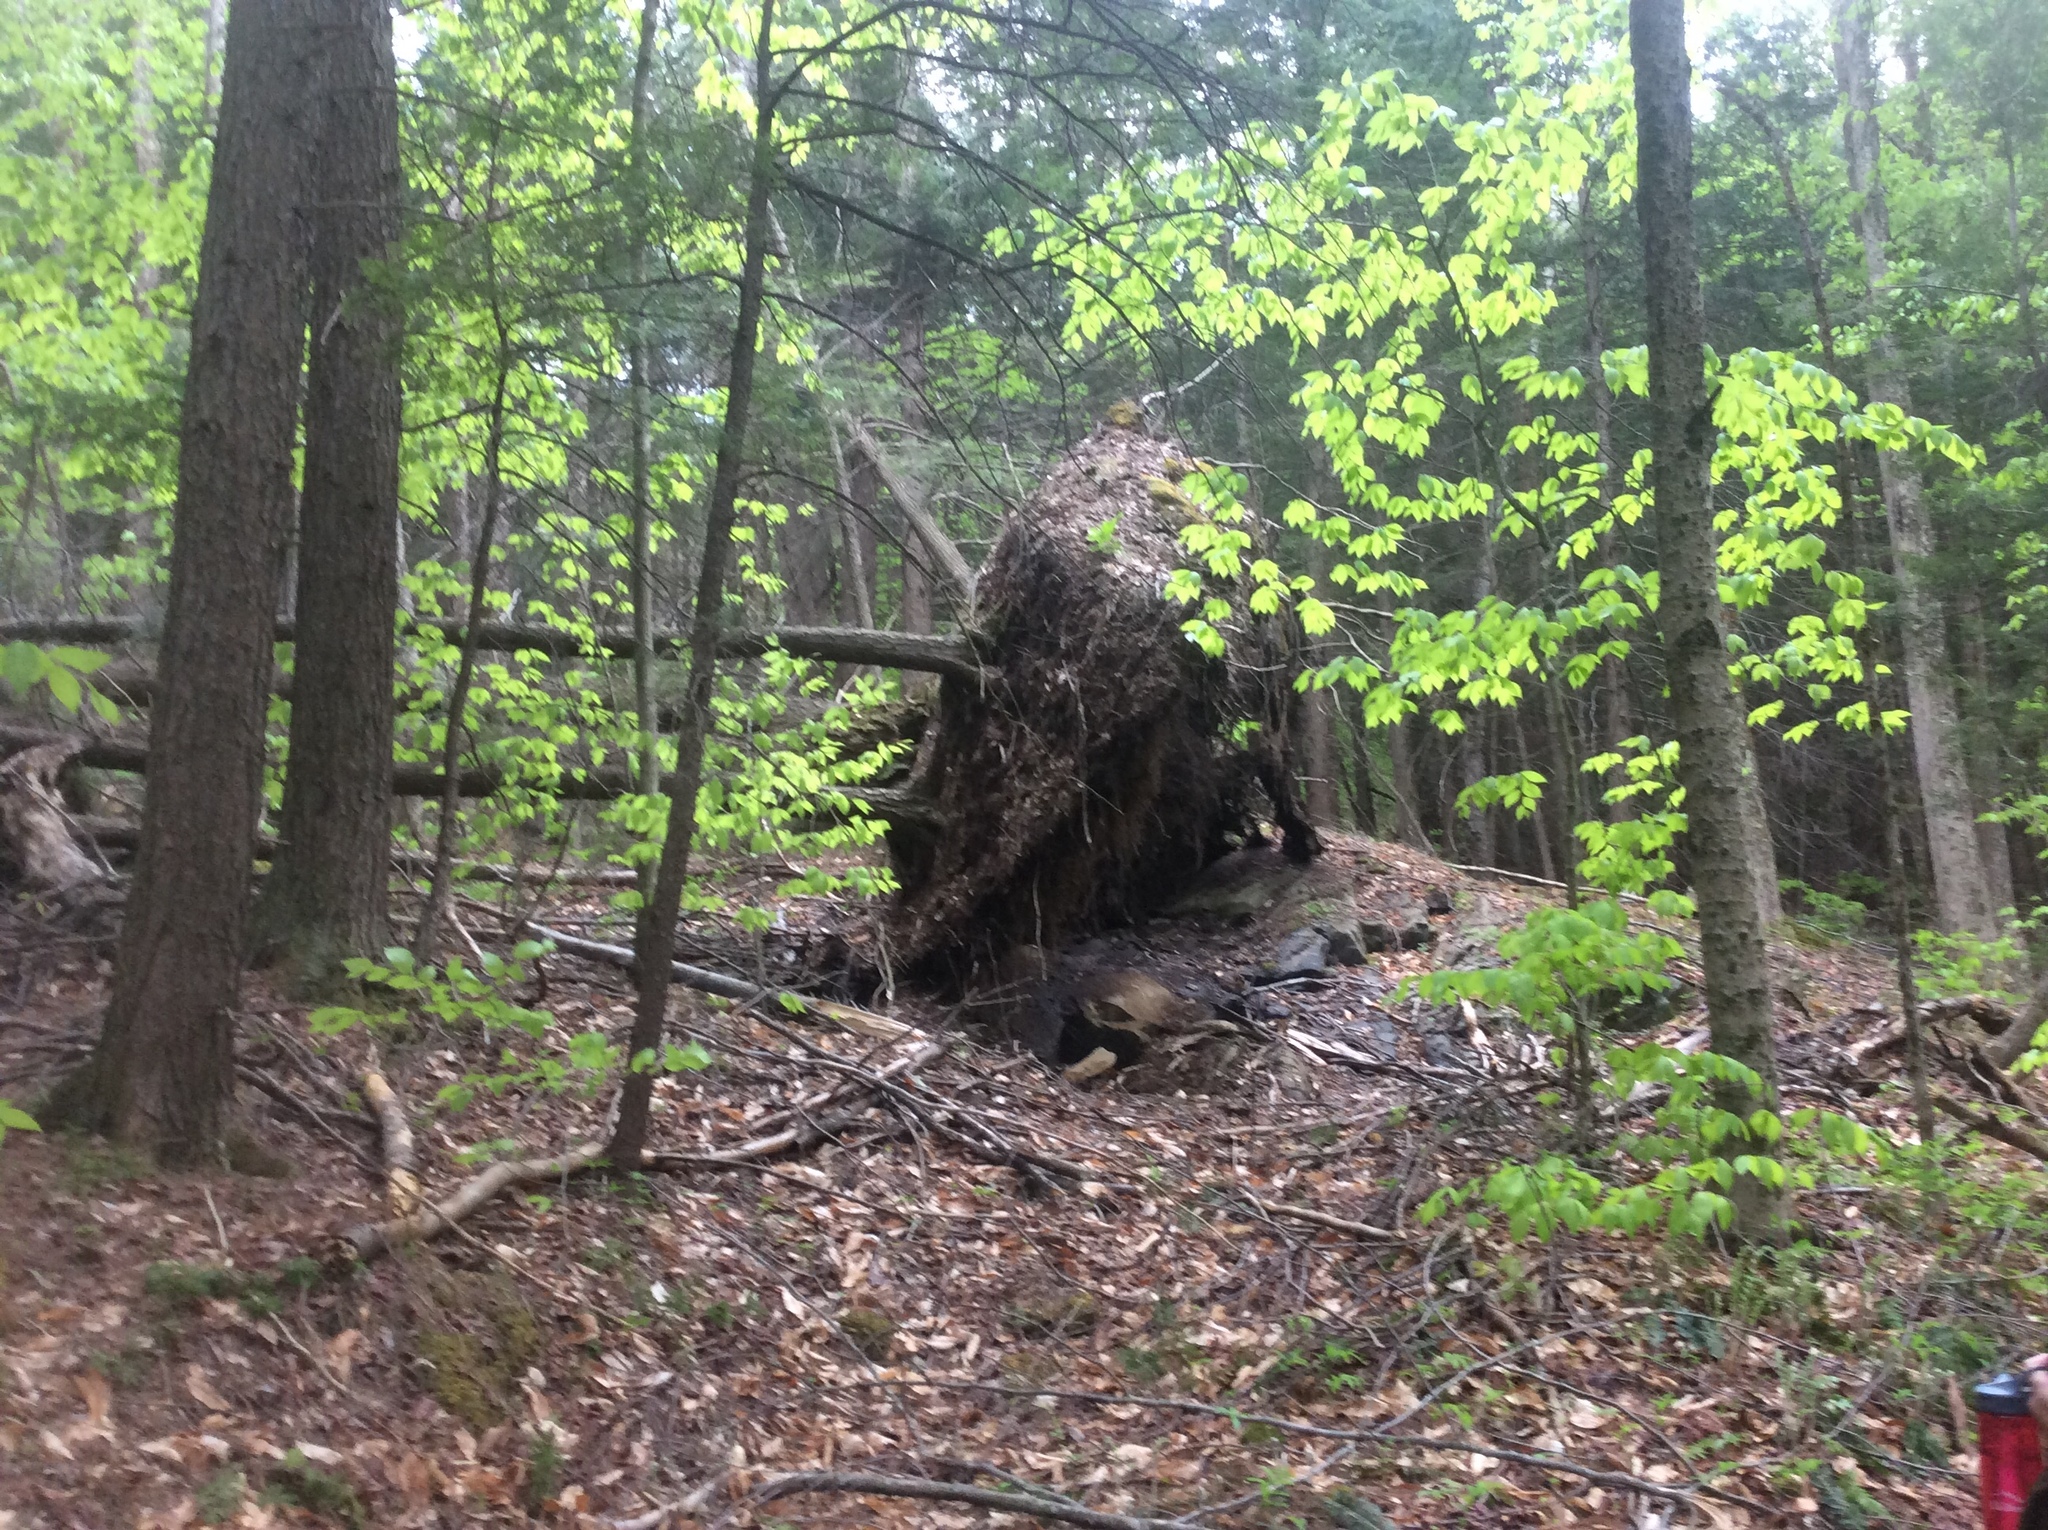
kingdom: Plantae
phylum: Tracheophyta
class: Pinopsida
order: Pinales
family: Pinaceae
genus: Tsuga
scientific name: Tsuga canadensis
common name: Eastern hemlock
